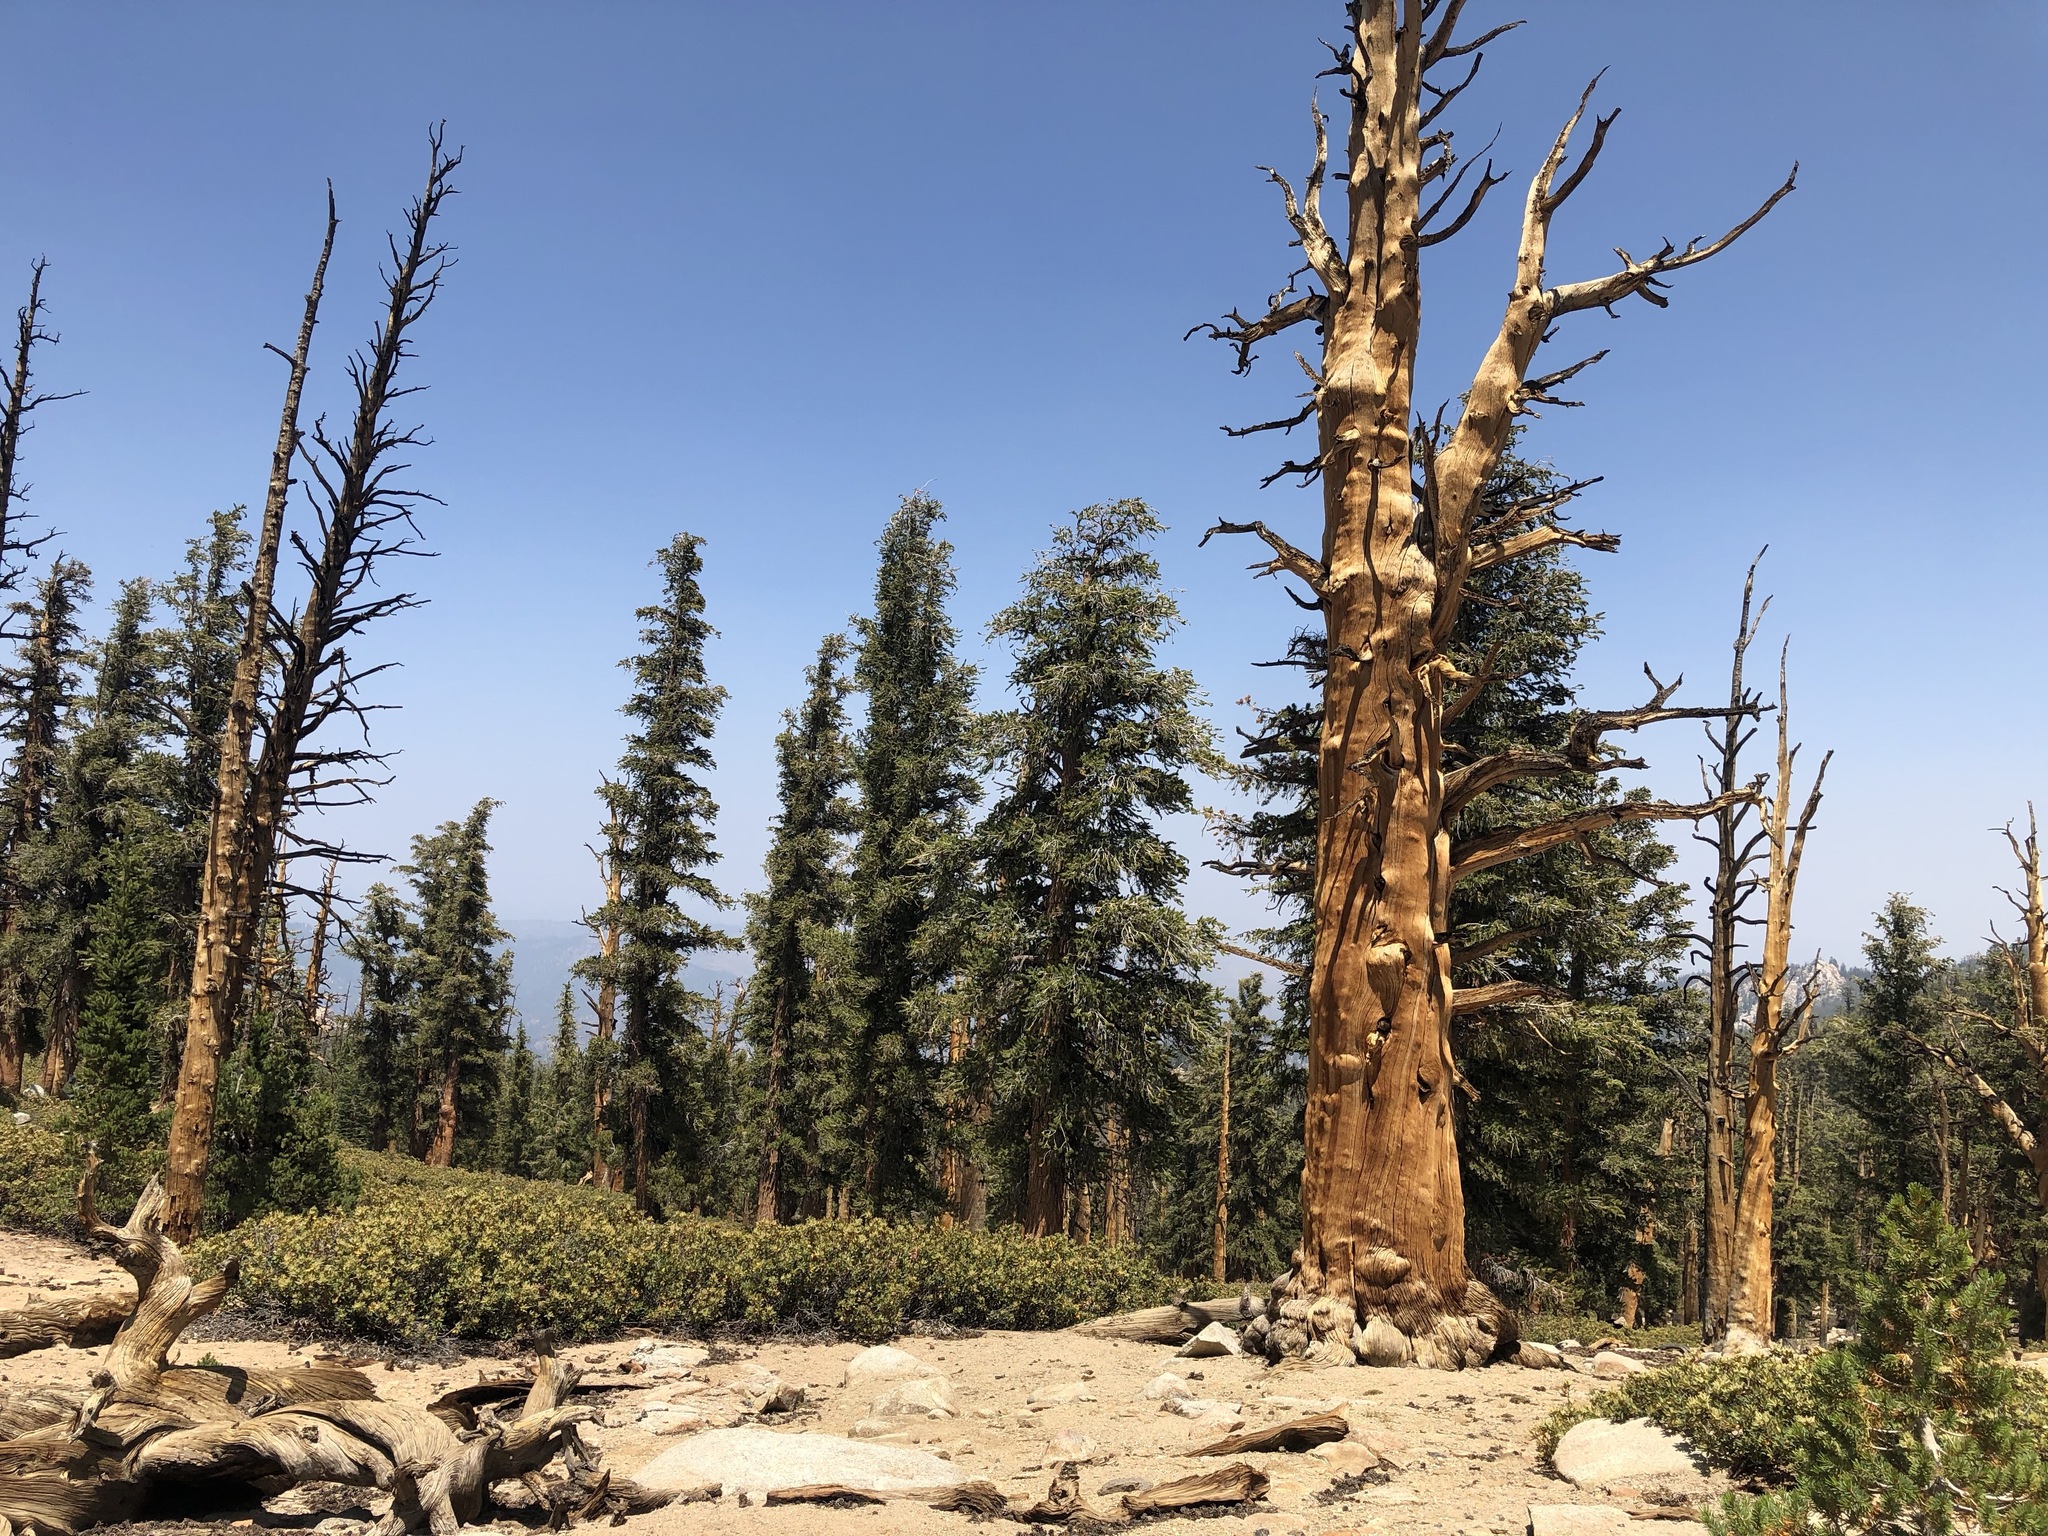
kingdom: Plantae
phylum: Tracheophyta
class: Pinopsida
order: Pinales
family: Pinaceae
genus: Pinus
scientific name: Pinus balfouriana
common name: Foxtail pine
